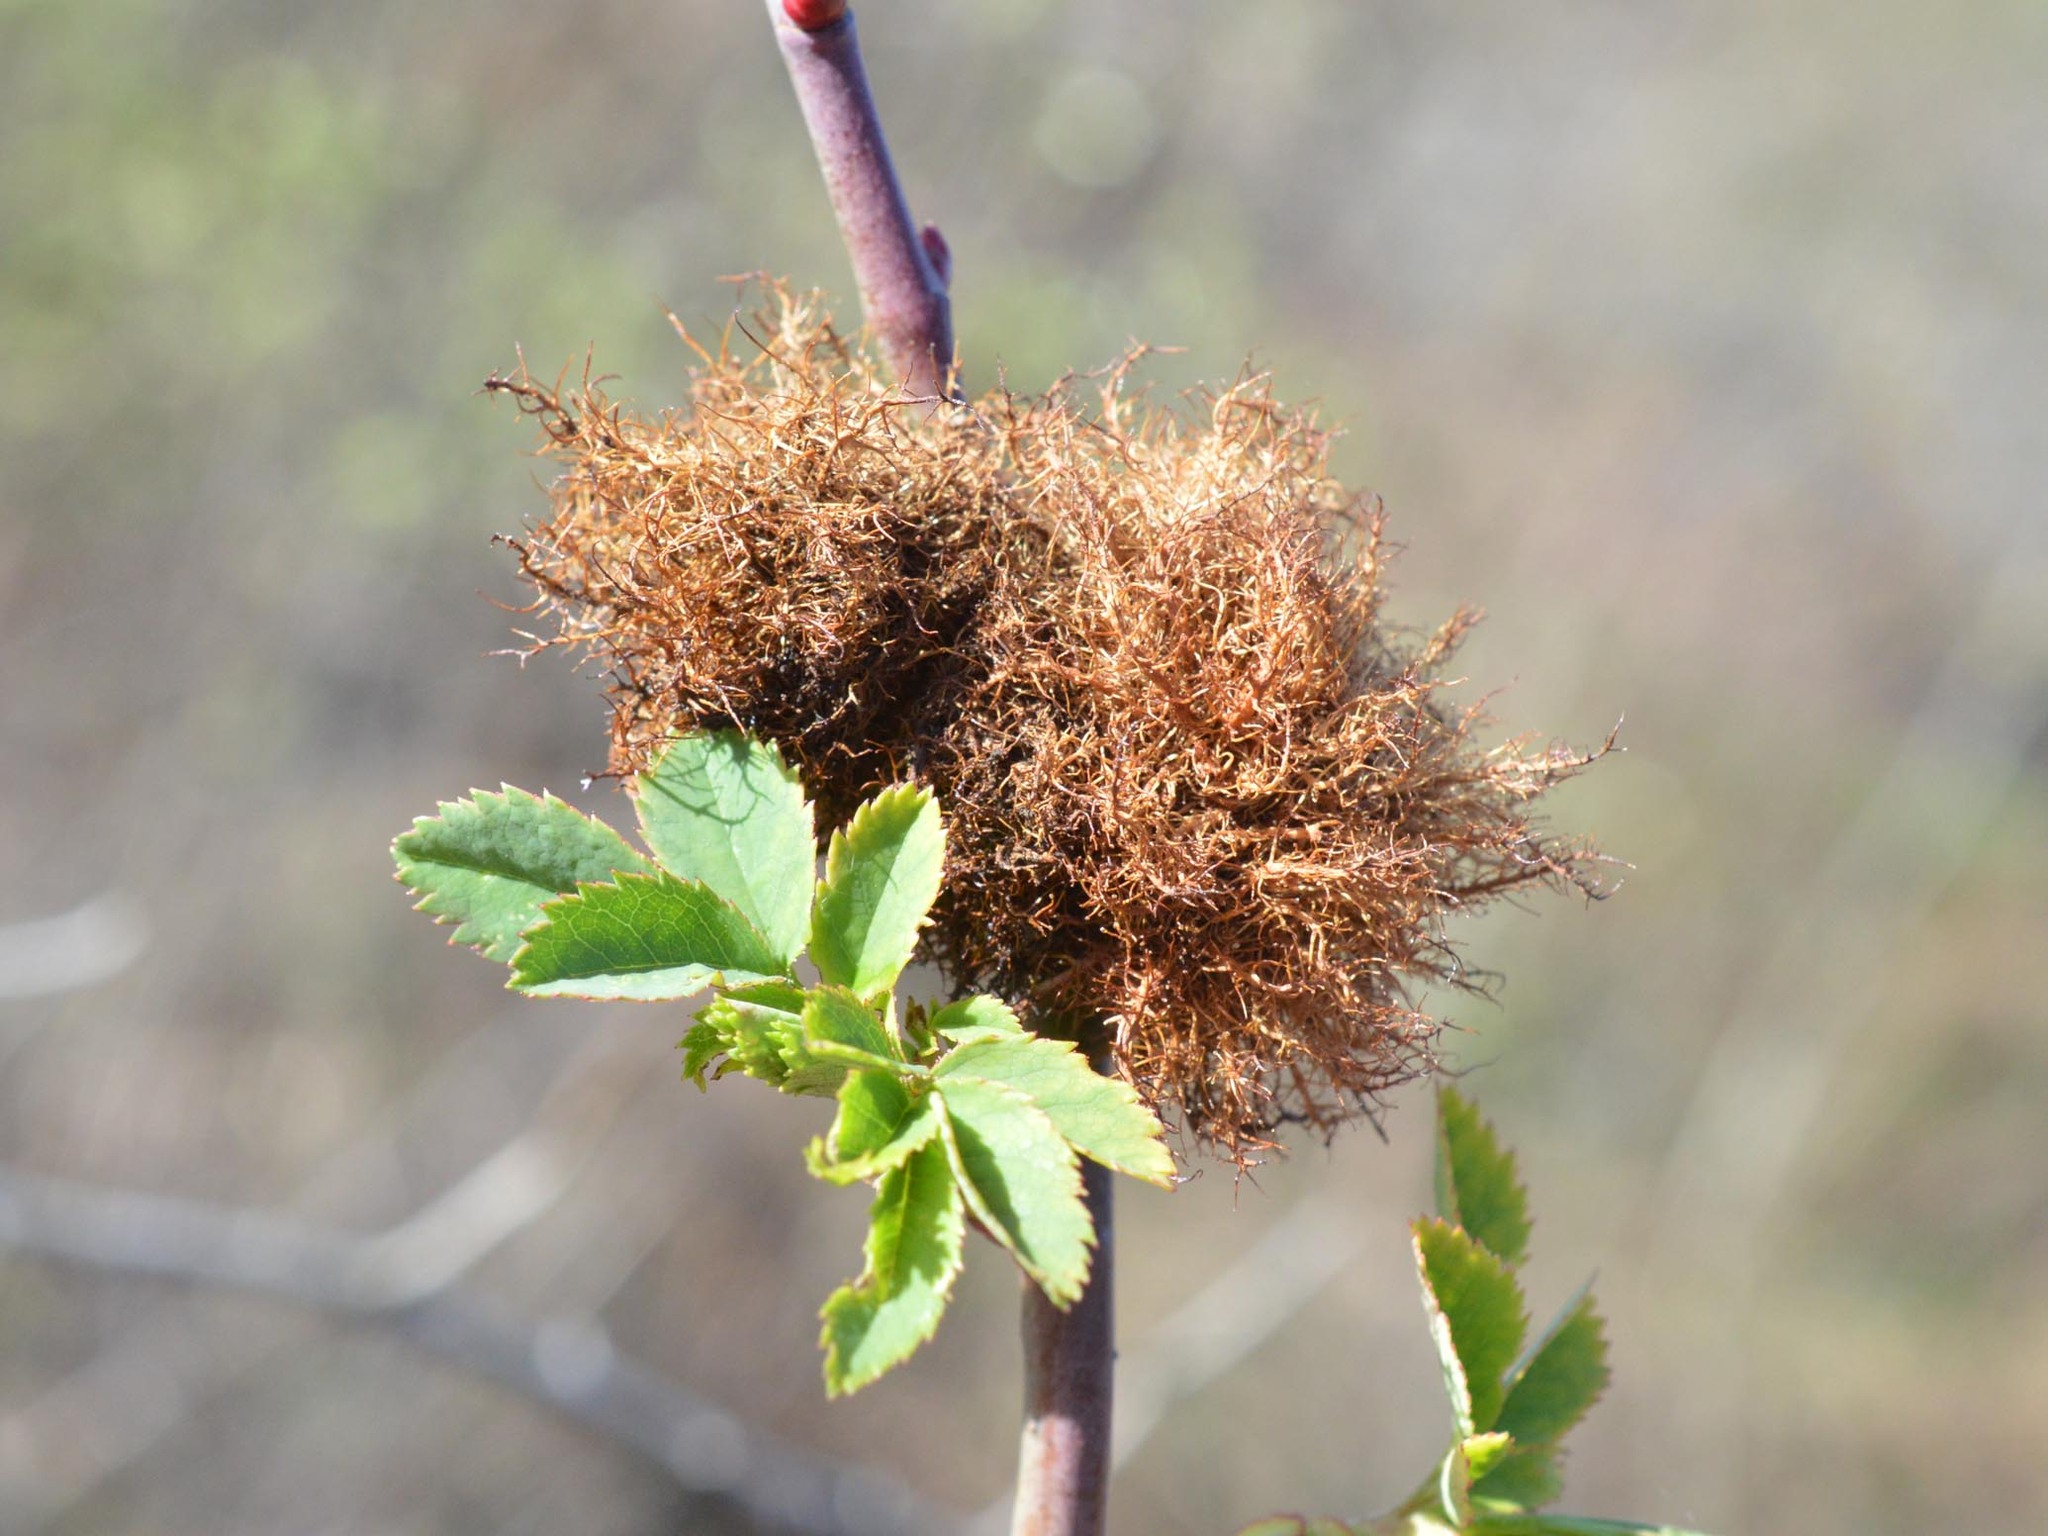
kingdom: Animalia
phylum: Arthropoda
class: Insecta
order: Hymenoptera
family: Cynipidae
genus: Diplolepis
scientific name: Diplolepis rosae
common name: Bedeguar gall
